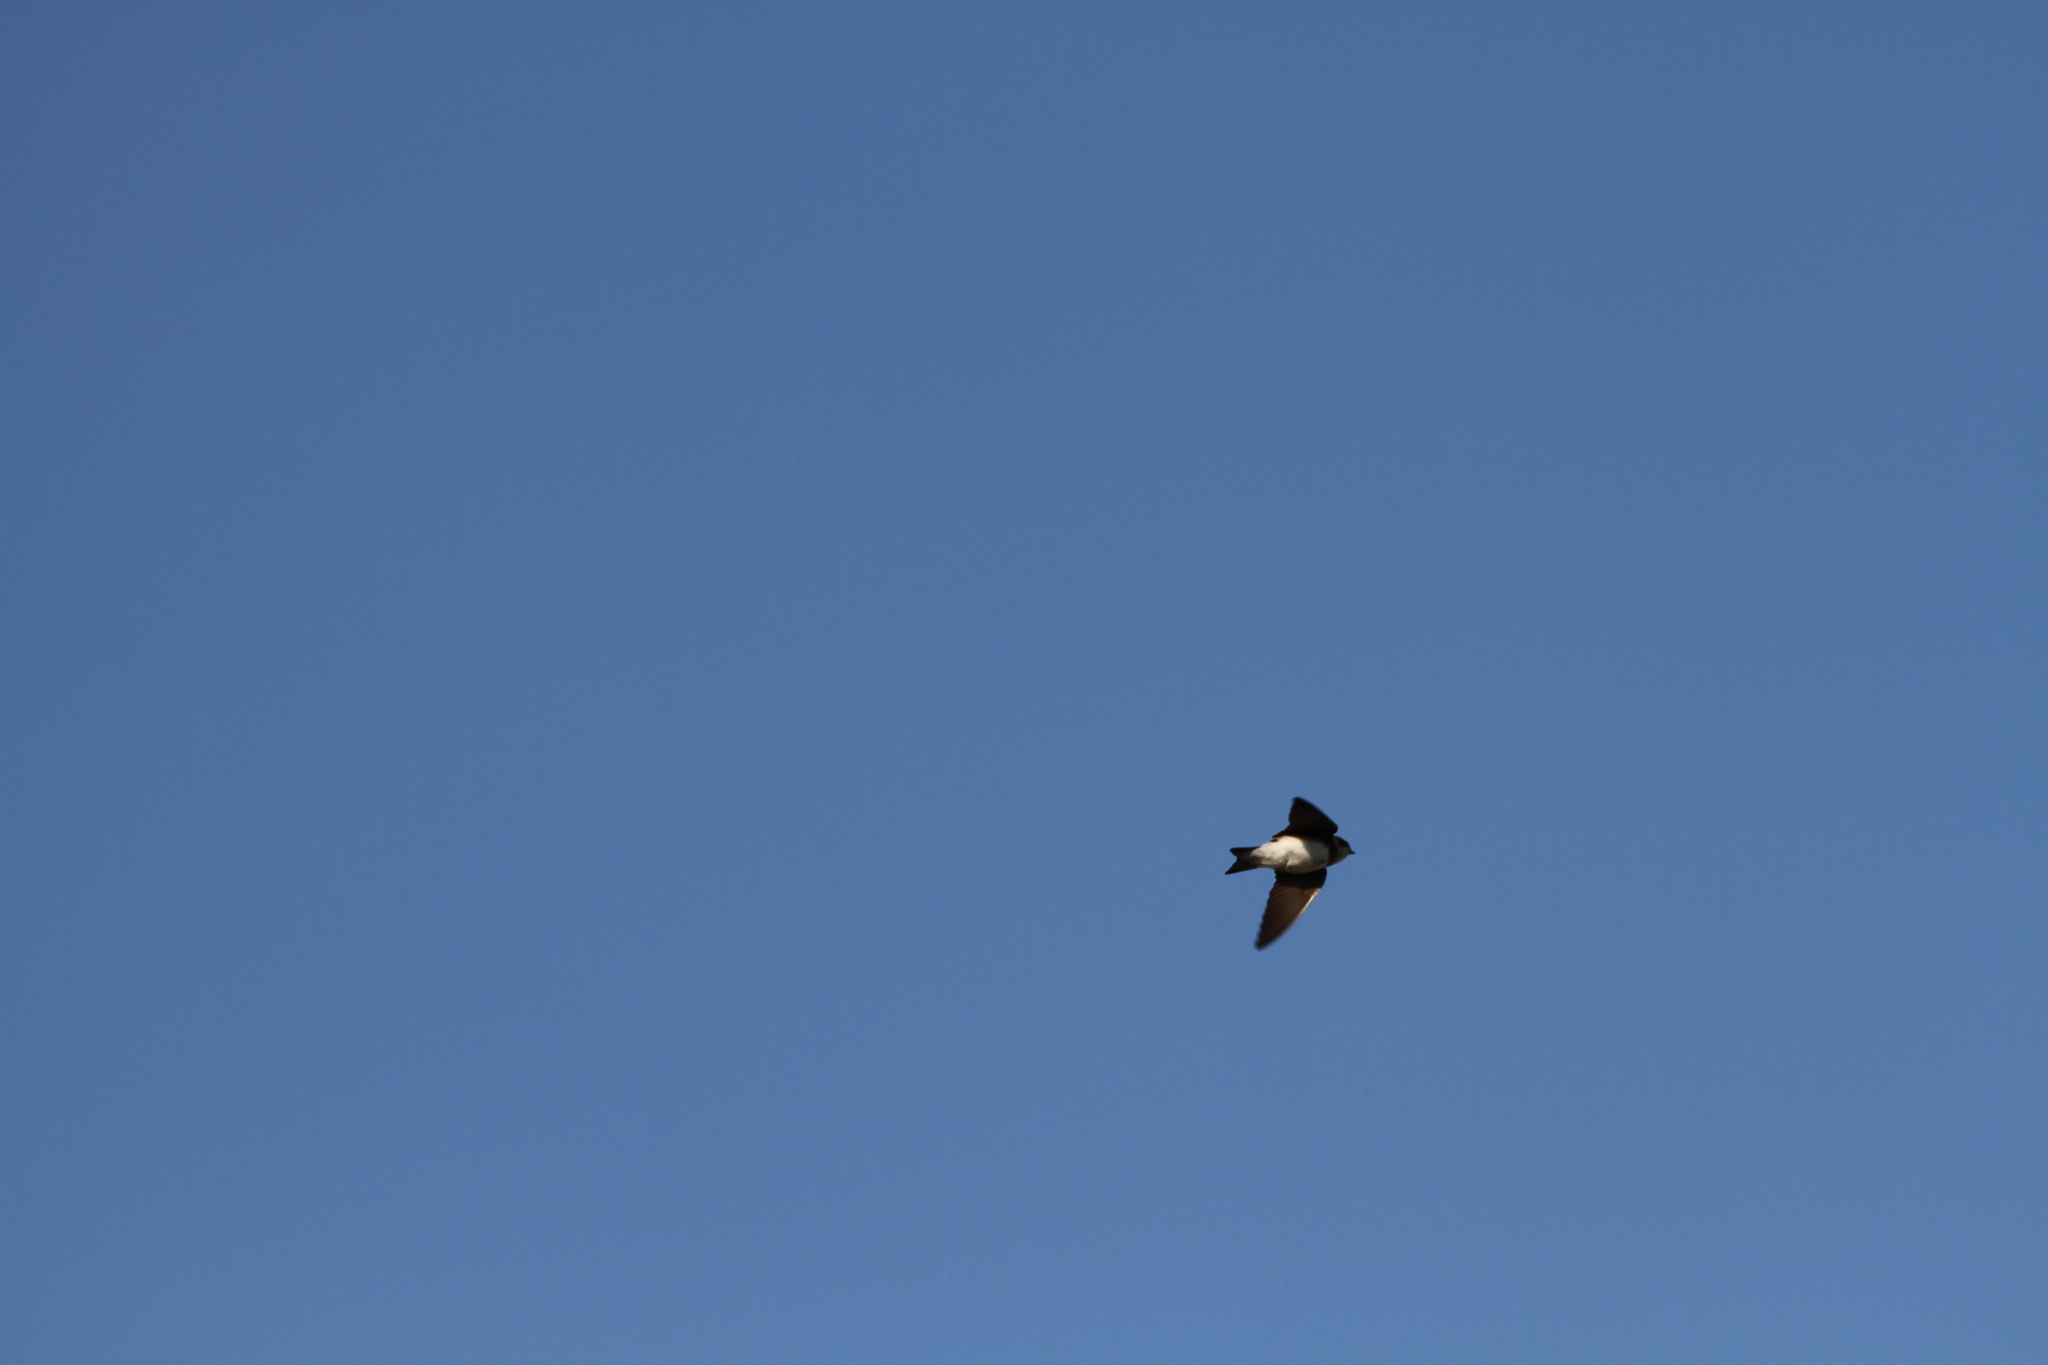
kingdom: Animalia
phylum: Chordata
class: Aves
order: Passeriformes
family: Hirundinidae
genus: Riparia
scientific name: Riparia riparia
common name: Sand martin
